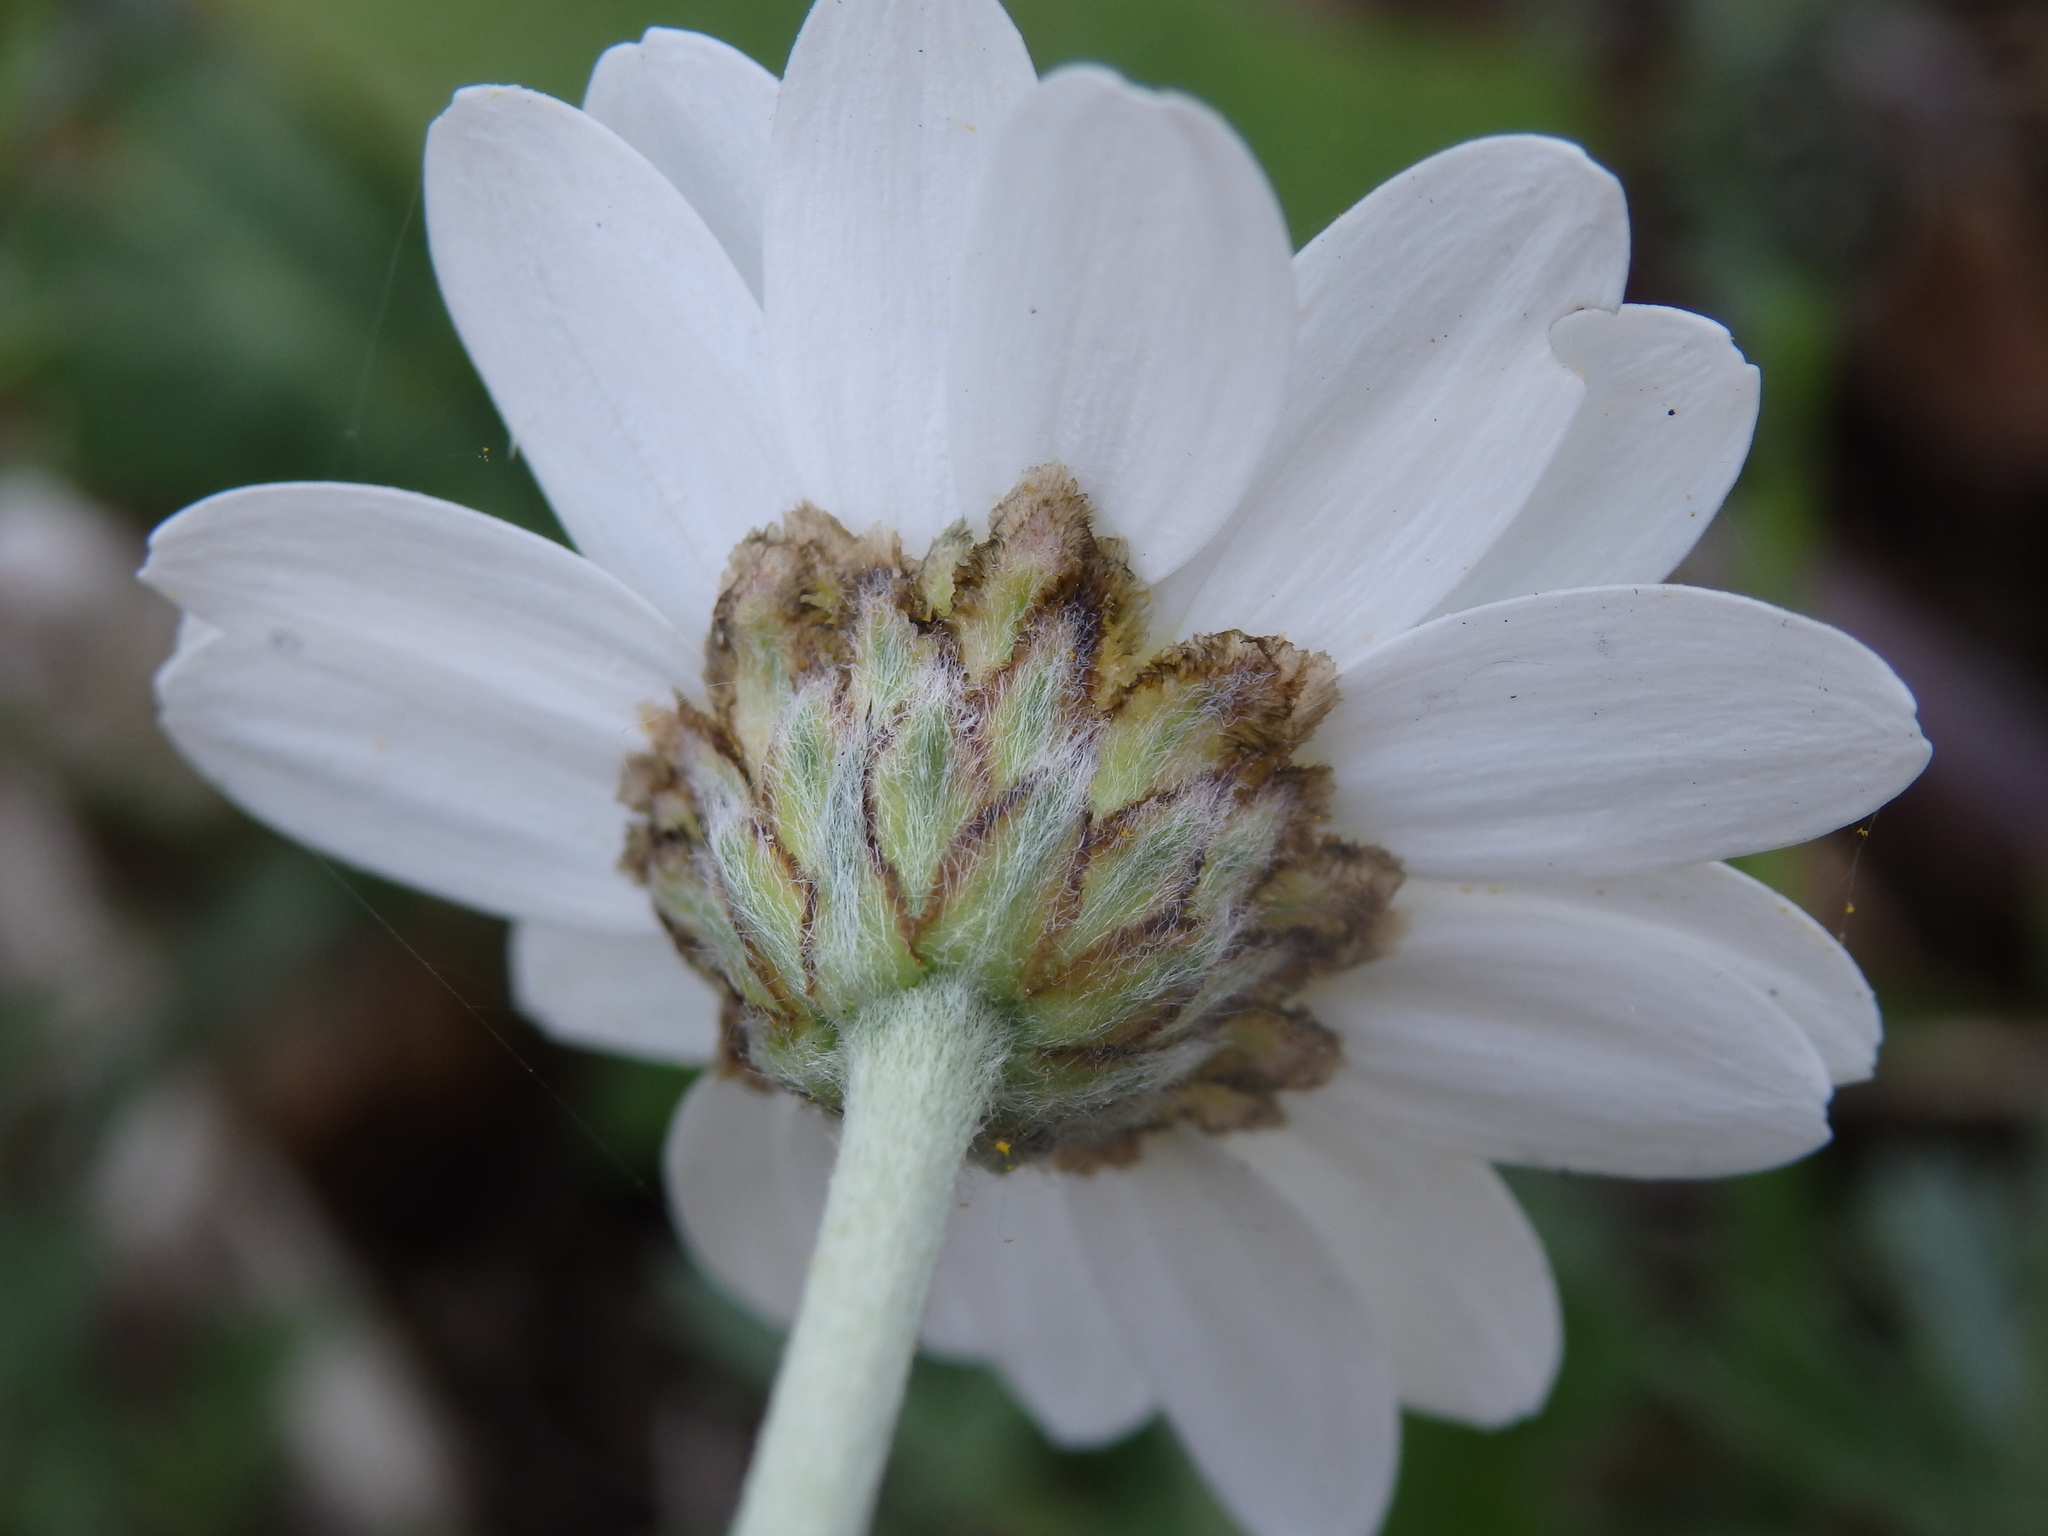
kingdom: Plantae
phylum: Tracheophyta
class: Magnoliopsida
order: Asterales
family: Asteraceae
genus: Phalacrocarpum
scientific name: Phalacrocarpum oppositifolium
